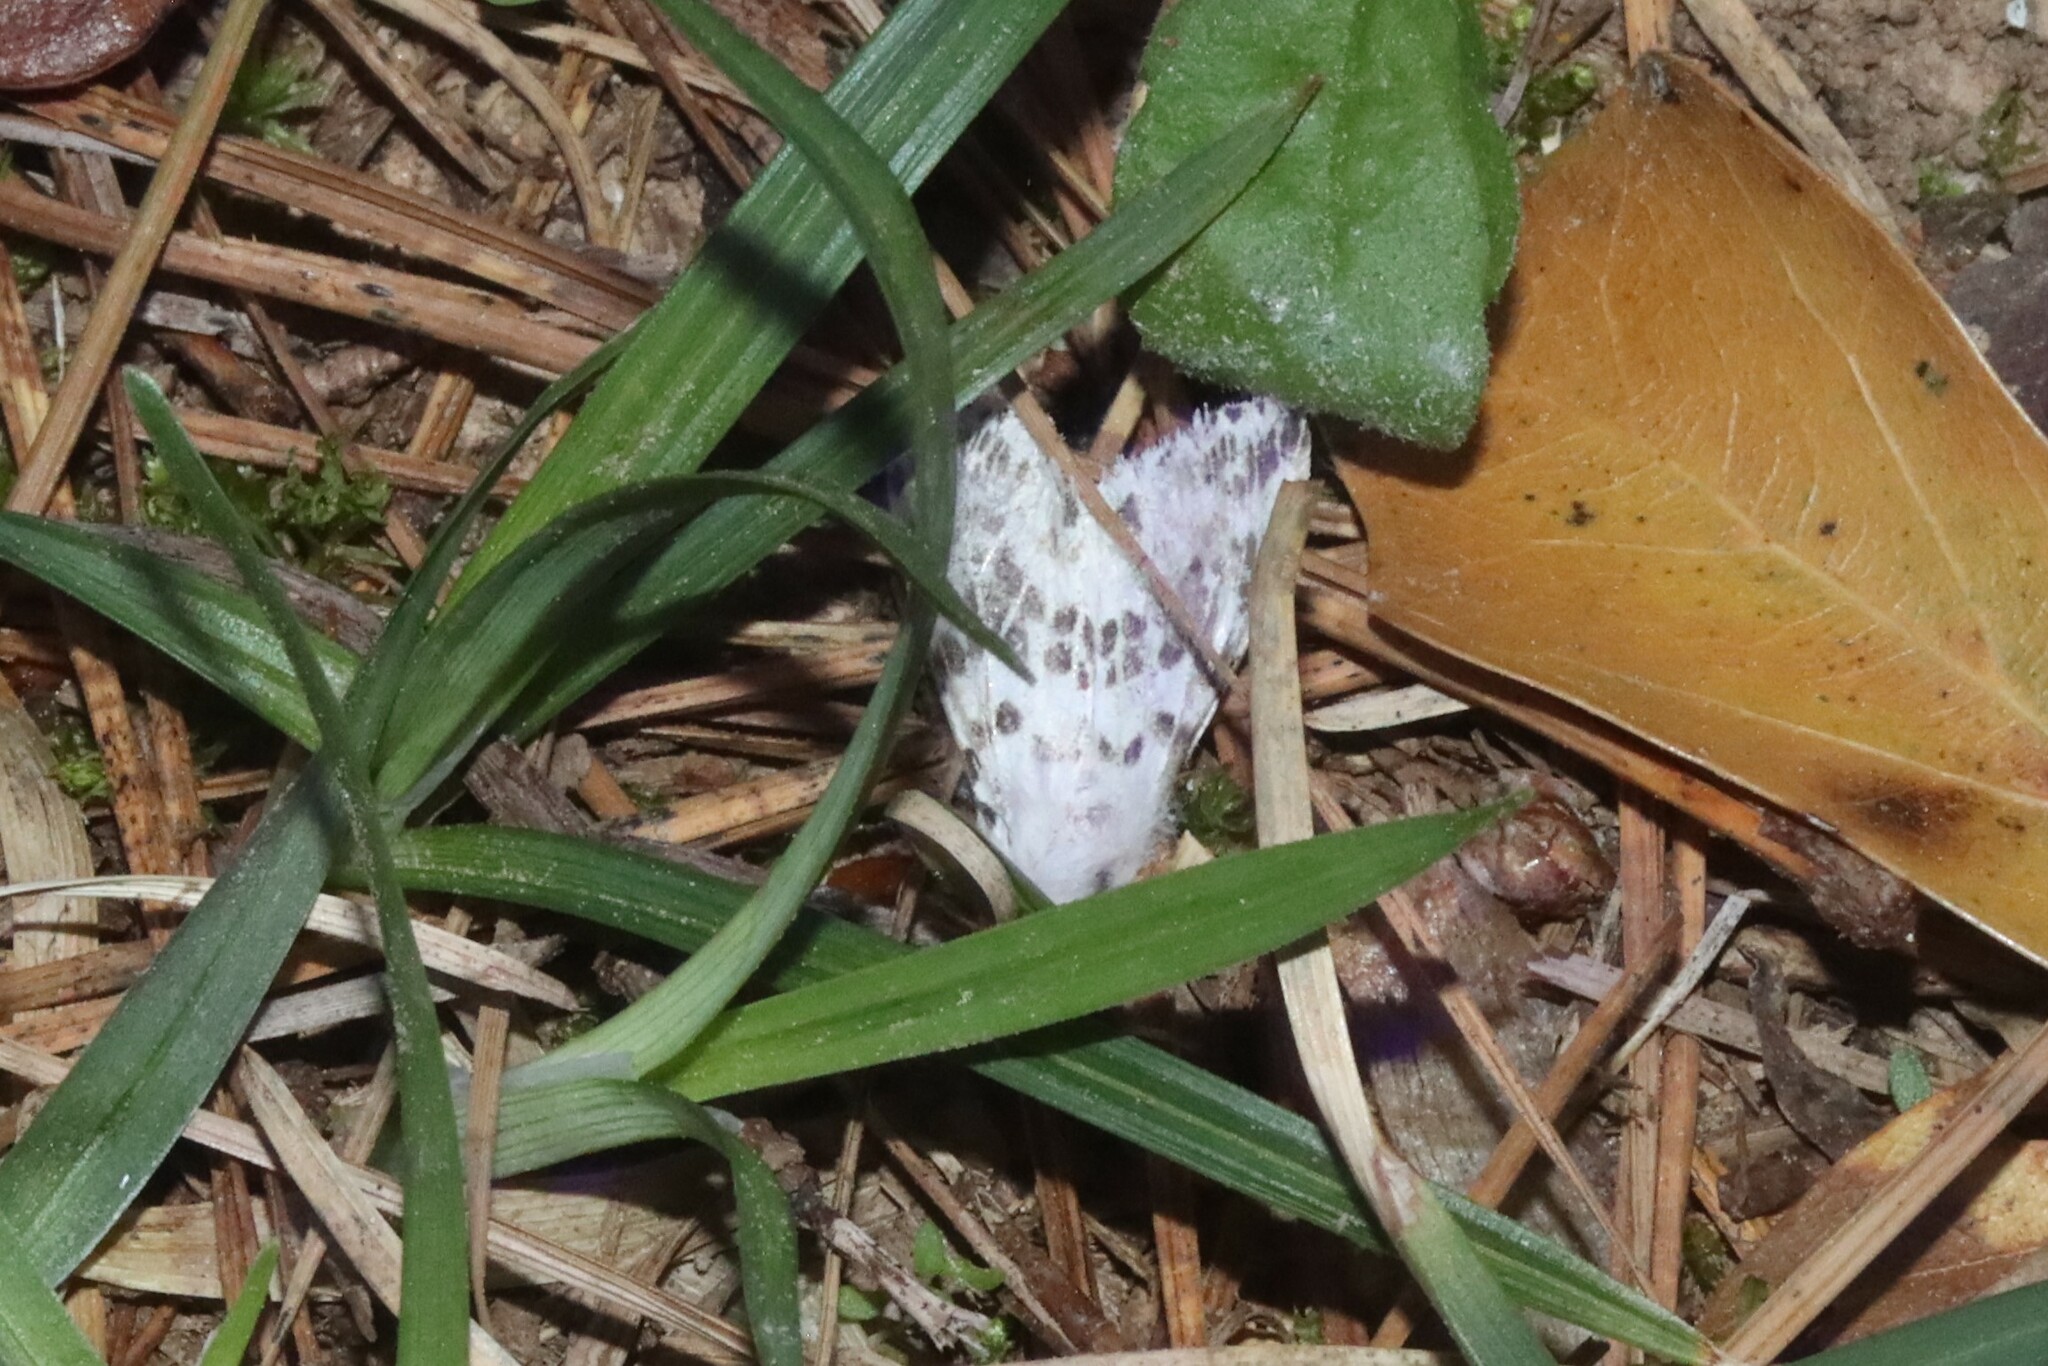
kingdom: Animalia
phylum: Arthropoda
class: Insecta
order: Lepidoptera
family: Erebidae
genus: Hyphantria
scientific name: Hyphantria cunea
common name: American white moth
